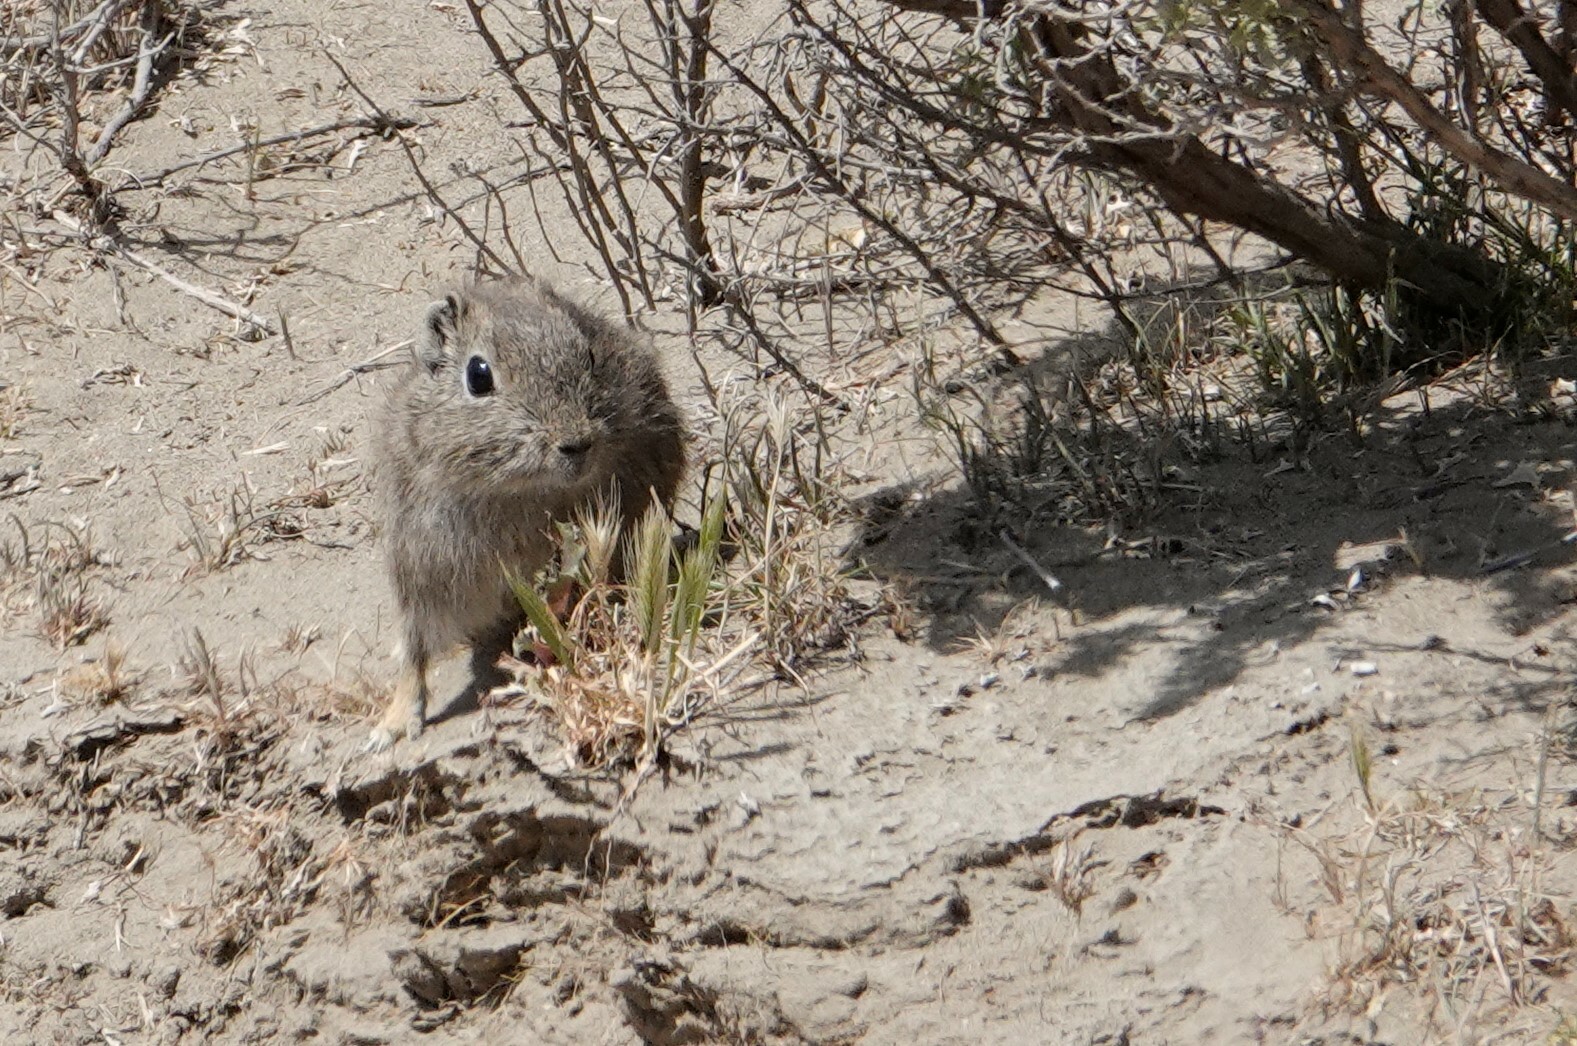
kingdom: Animalia
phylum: Chordata
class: Mammalia
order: Rodentia
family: Caviidae
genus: Microcavia
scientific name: Microcavia australis
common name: Southern mountain cavy
